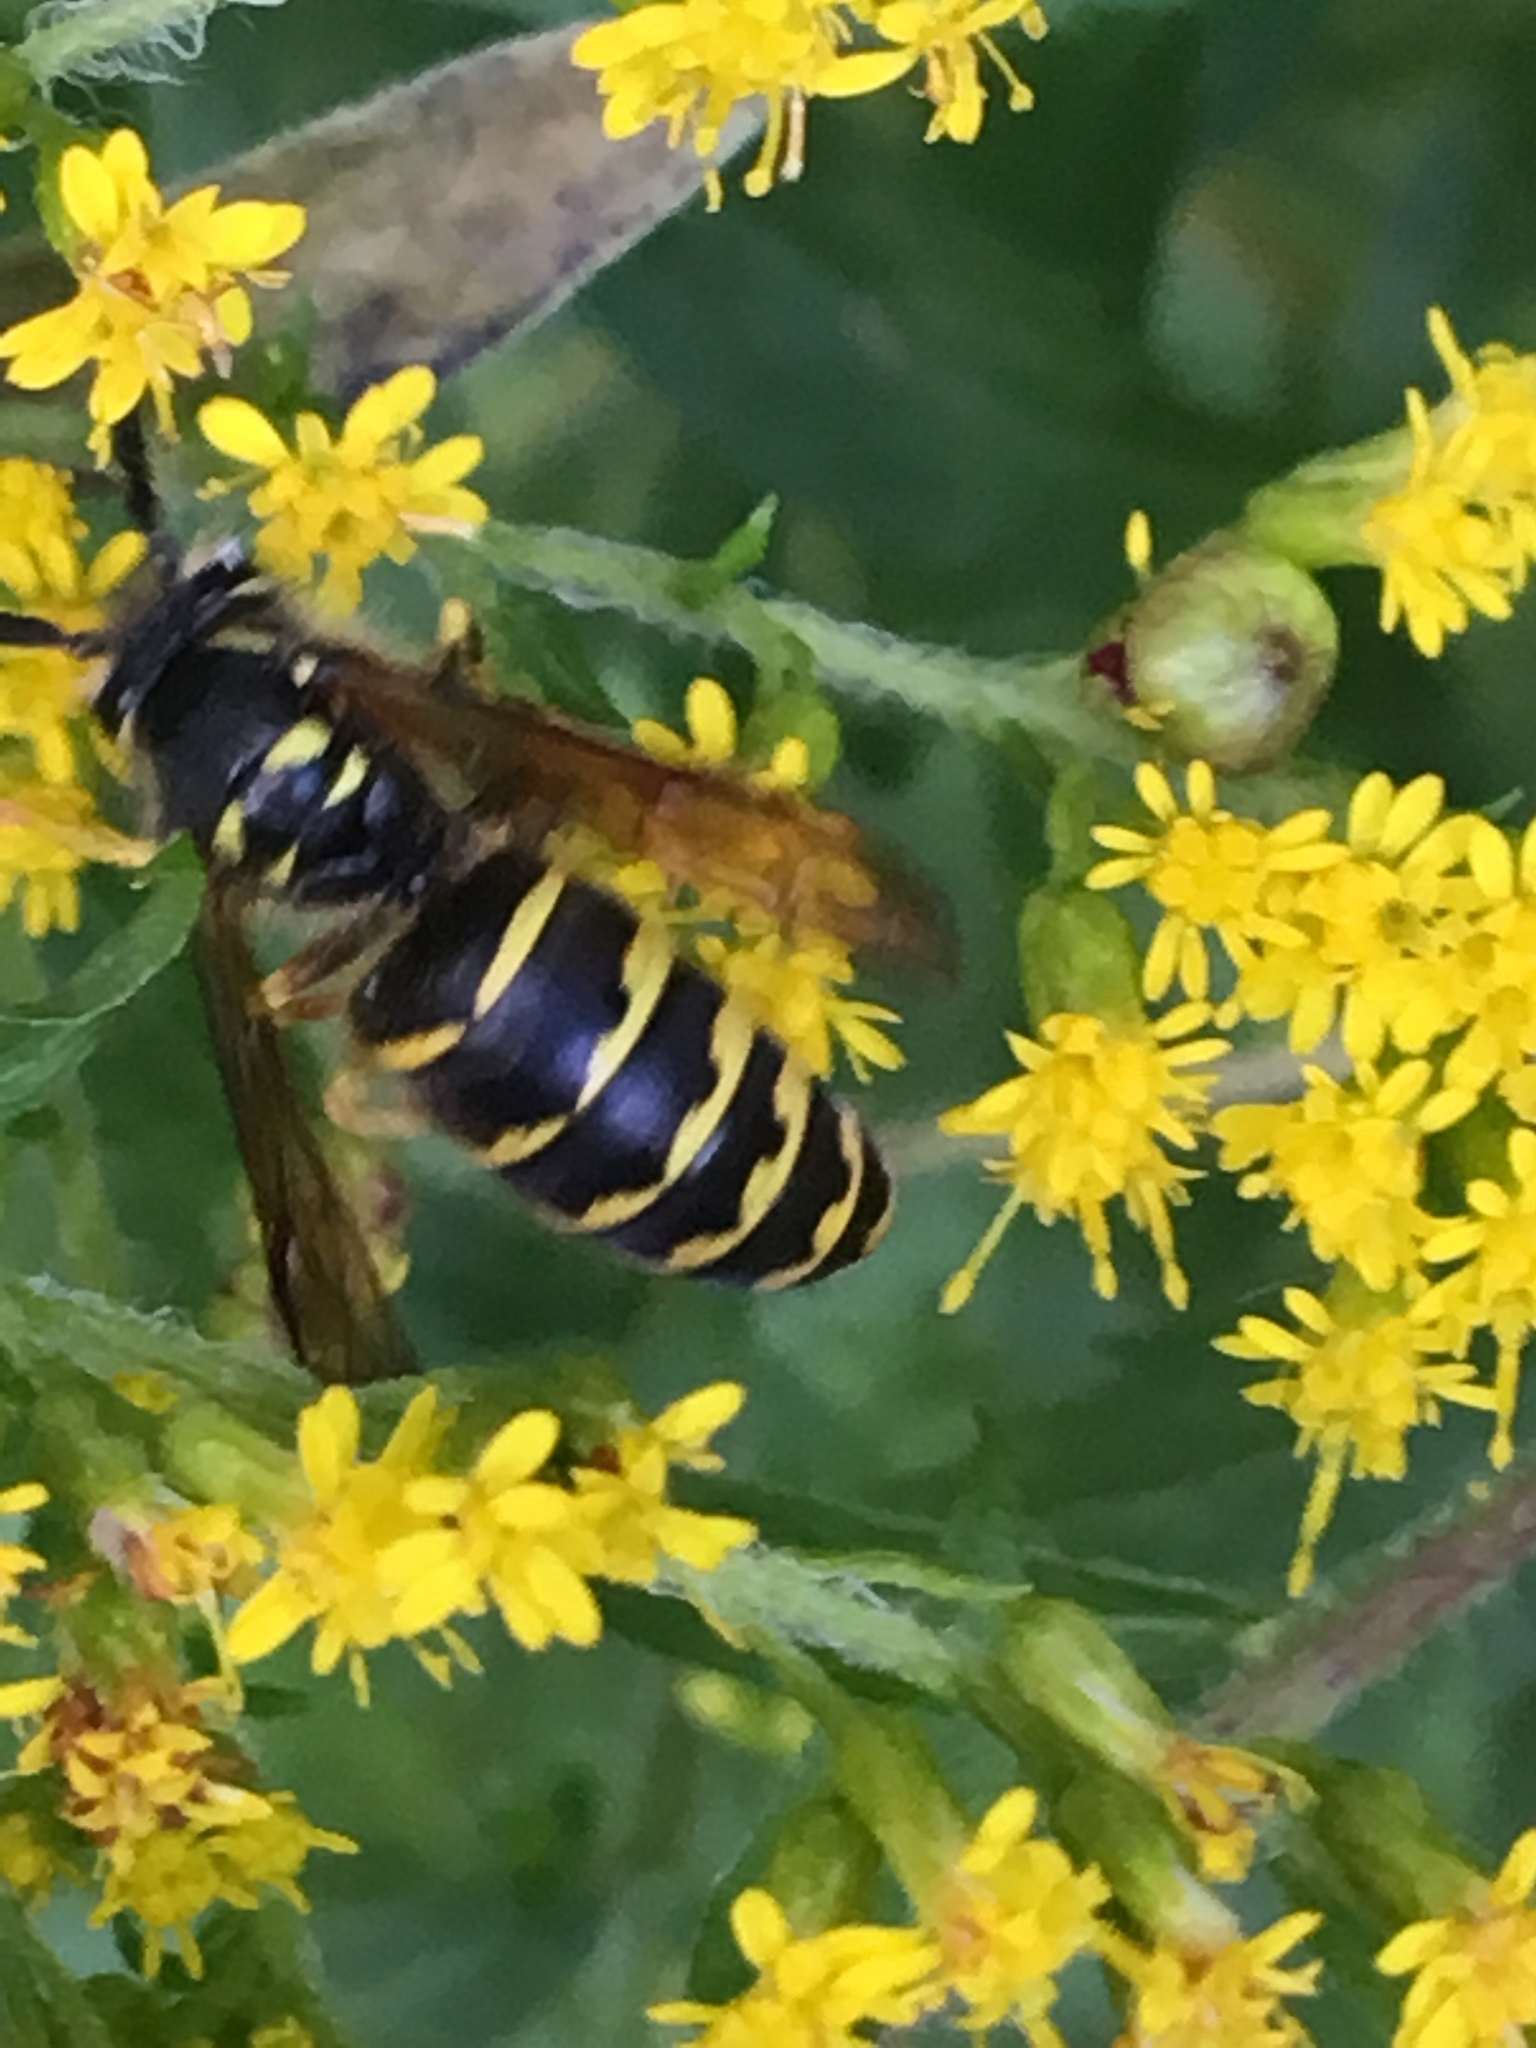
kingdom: Animalia
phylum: Arthropoda
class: Insecta
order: Hymenoptera
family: Vespidae
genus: Dolichovespula
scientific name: Dolichovespula arenaria
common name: Aerial yellowjacket
